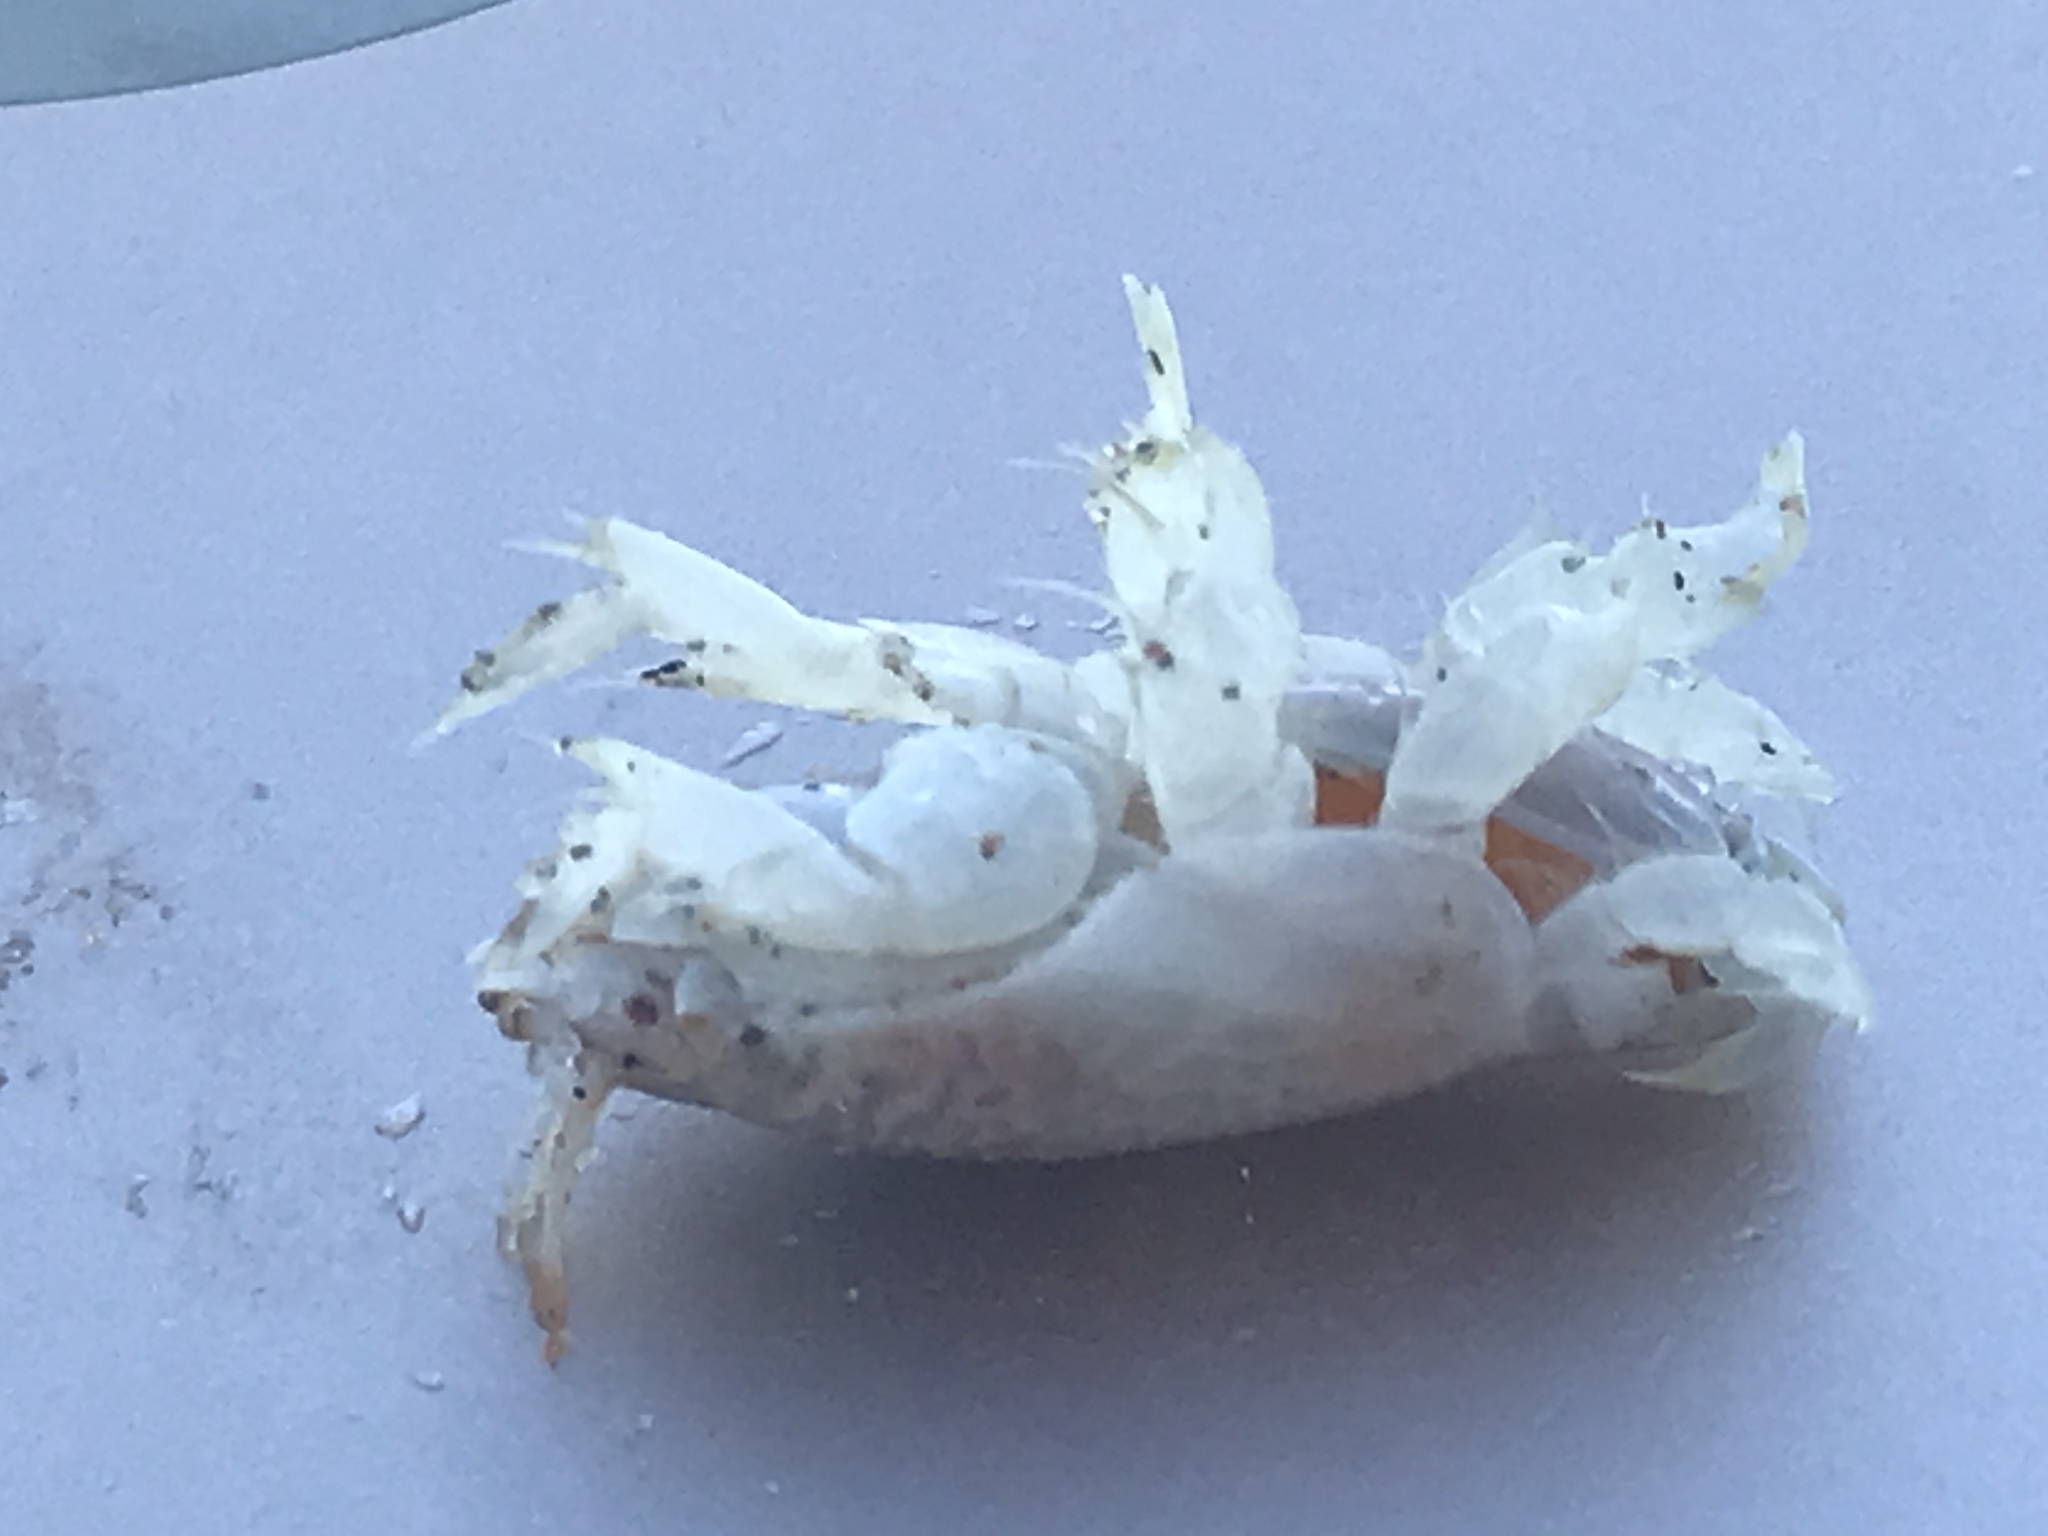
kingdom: Animalia
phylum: Arthropoda
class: Malacostraca
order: Decapoda
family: Hippidae
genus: Emerita
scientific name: Emerita portoricensis
